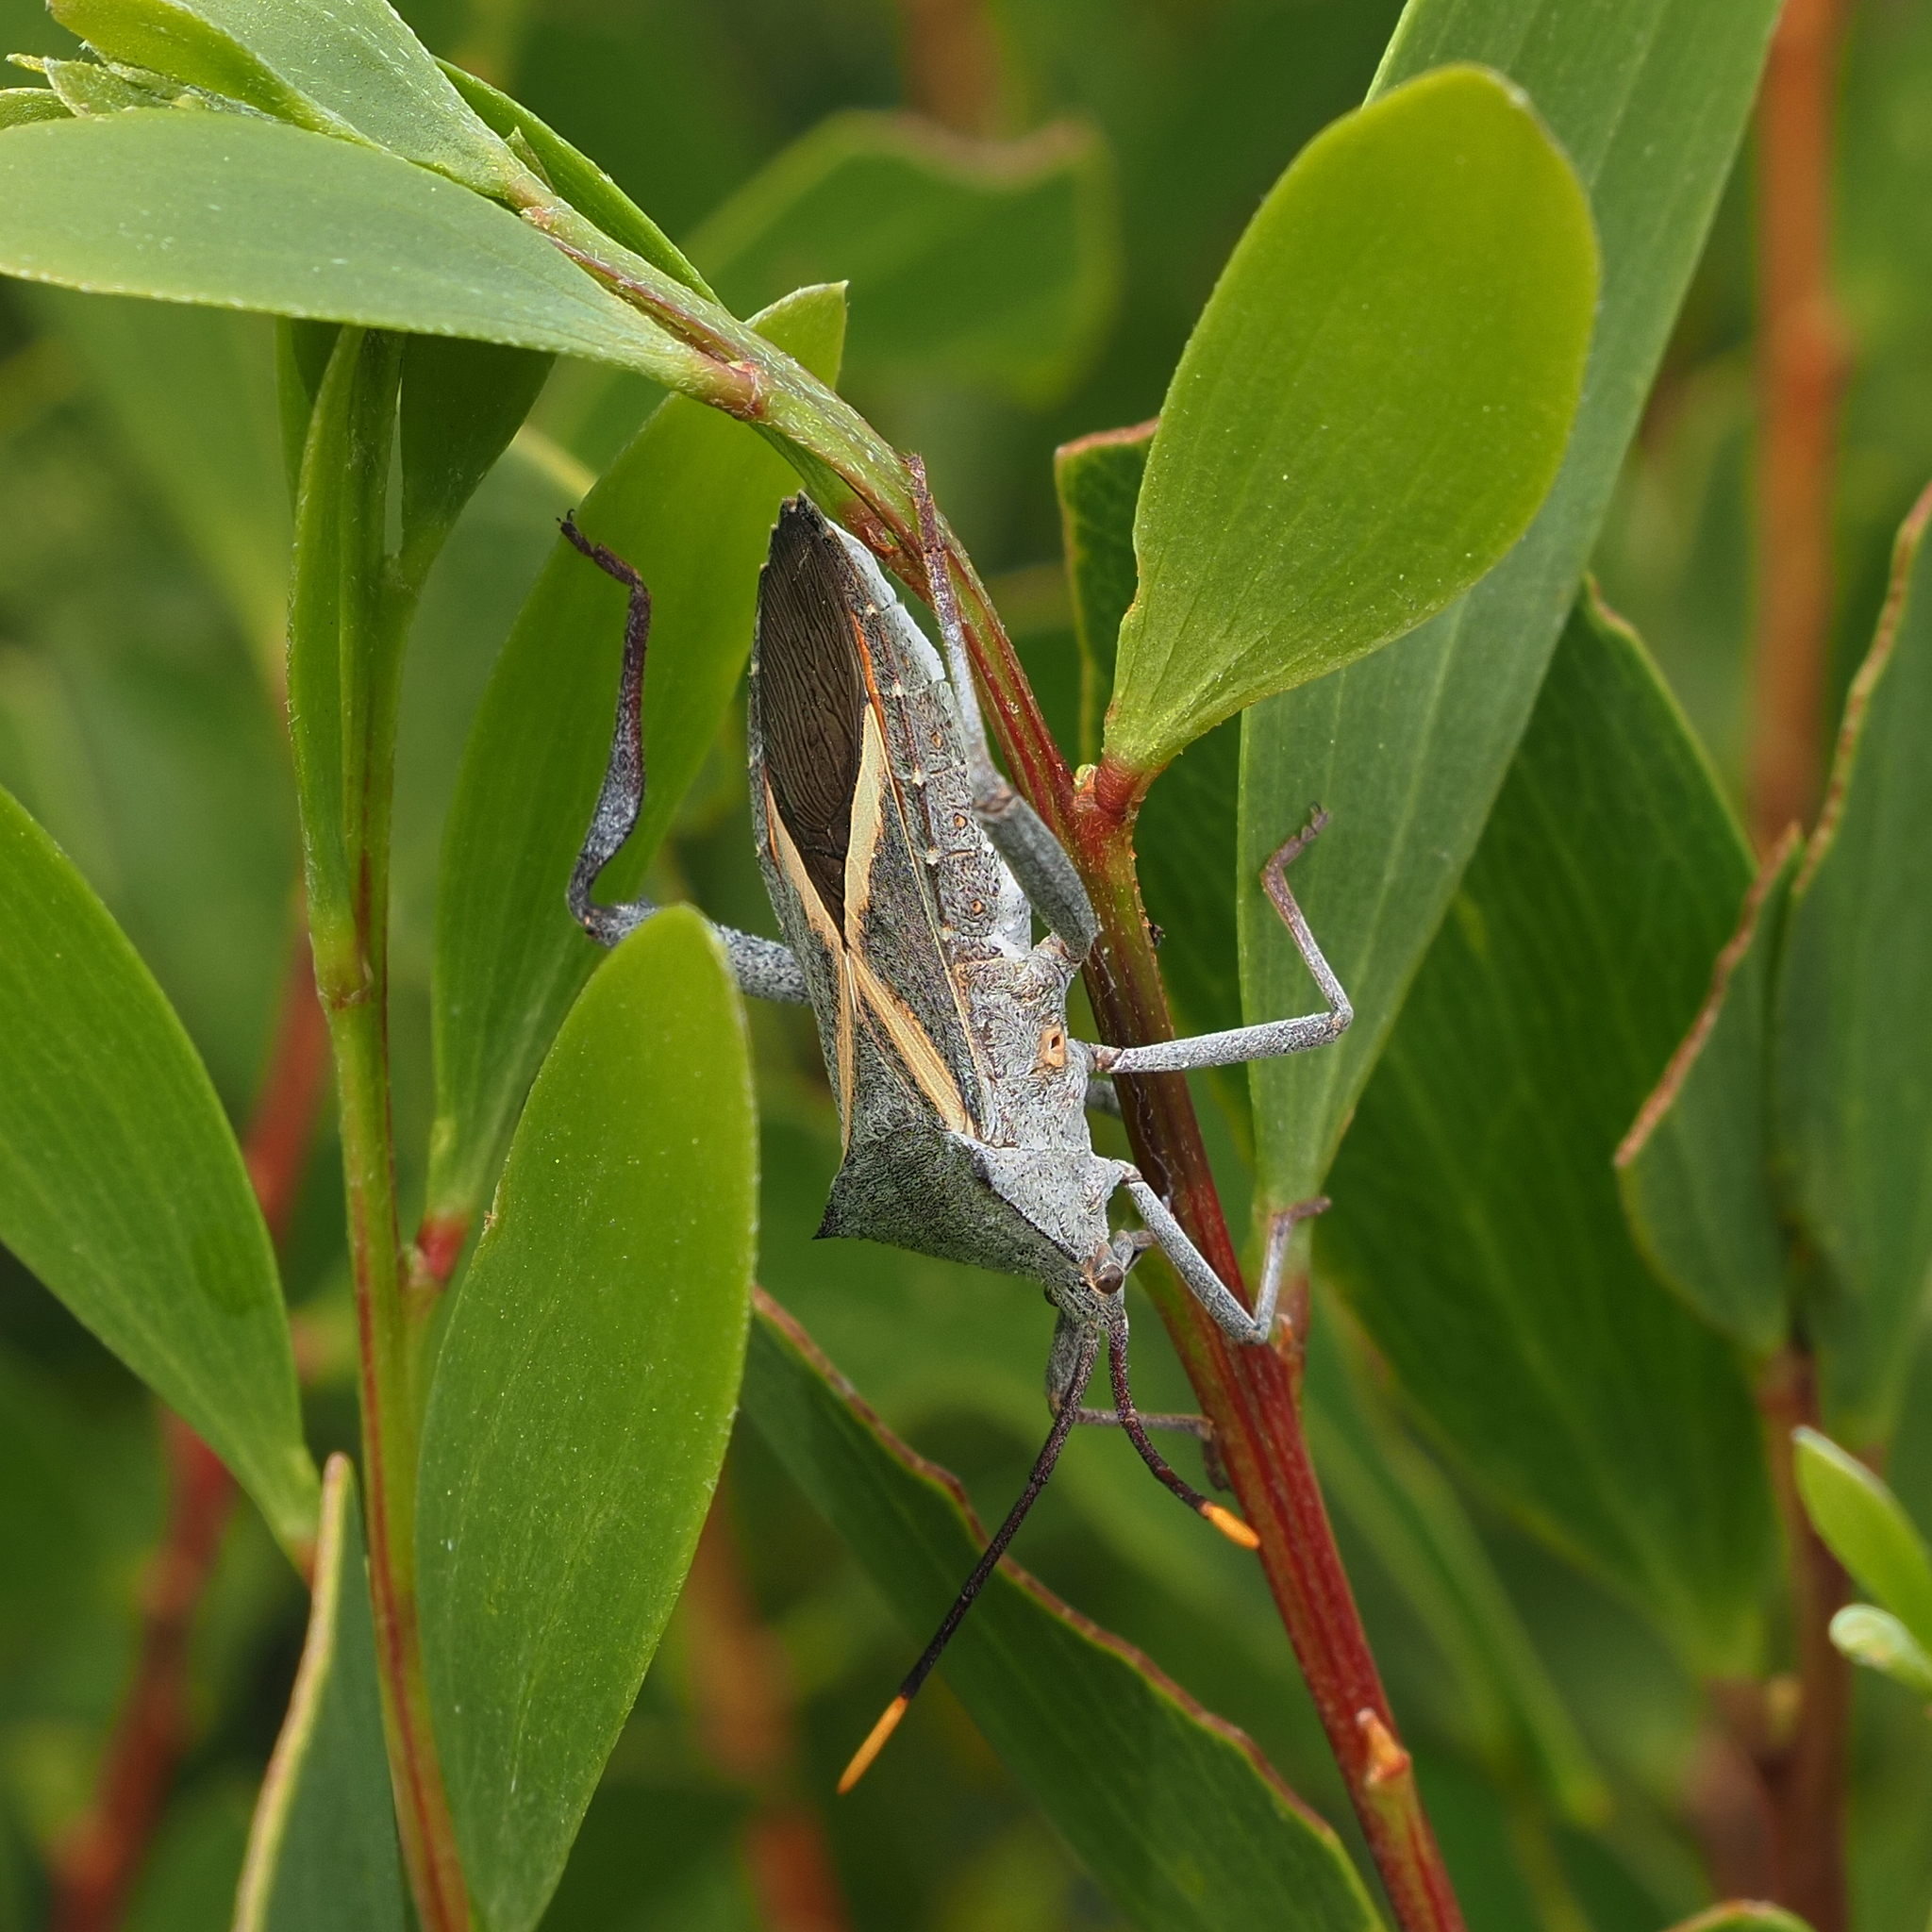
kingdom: Animalia
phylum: Arthropoda
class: Insecta
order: Hemiptera
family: Coreidae
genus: Mictis
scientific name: Mictis profana
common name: Crusader bug
